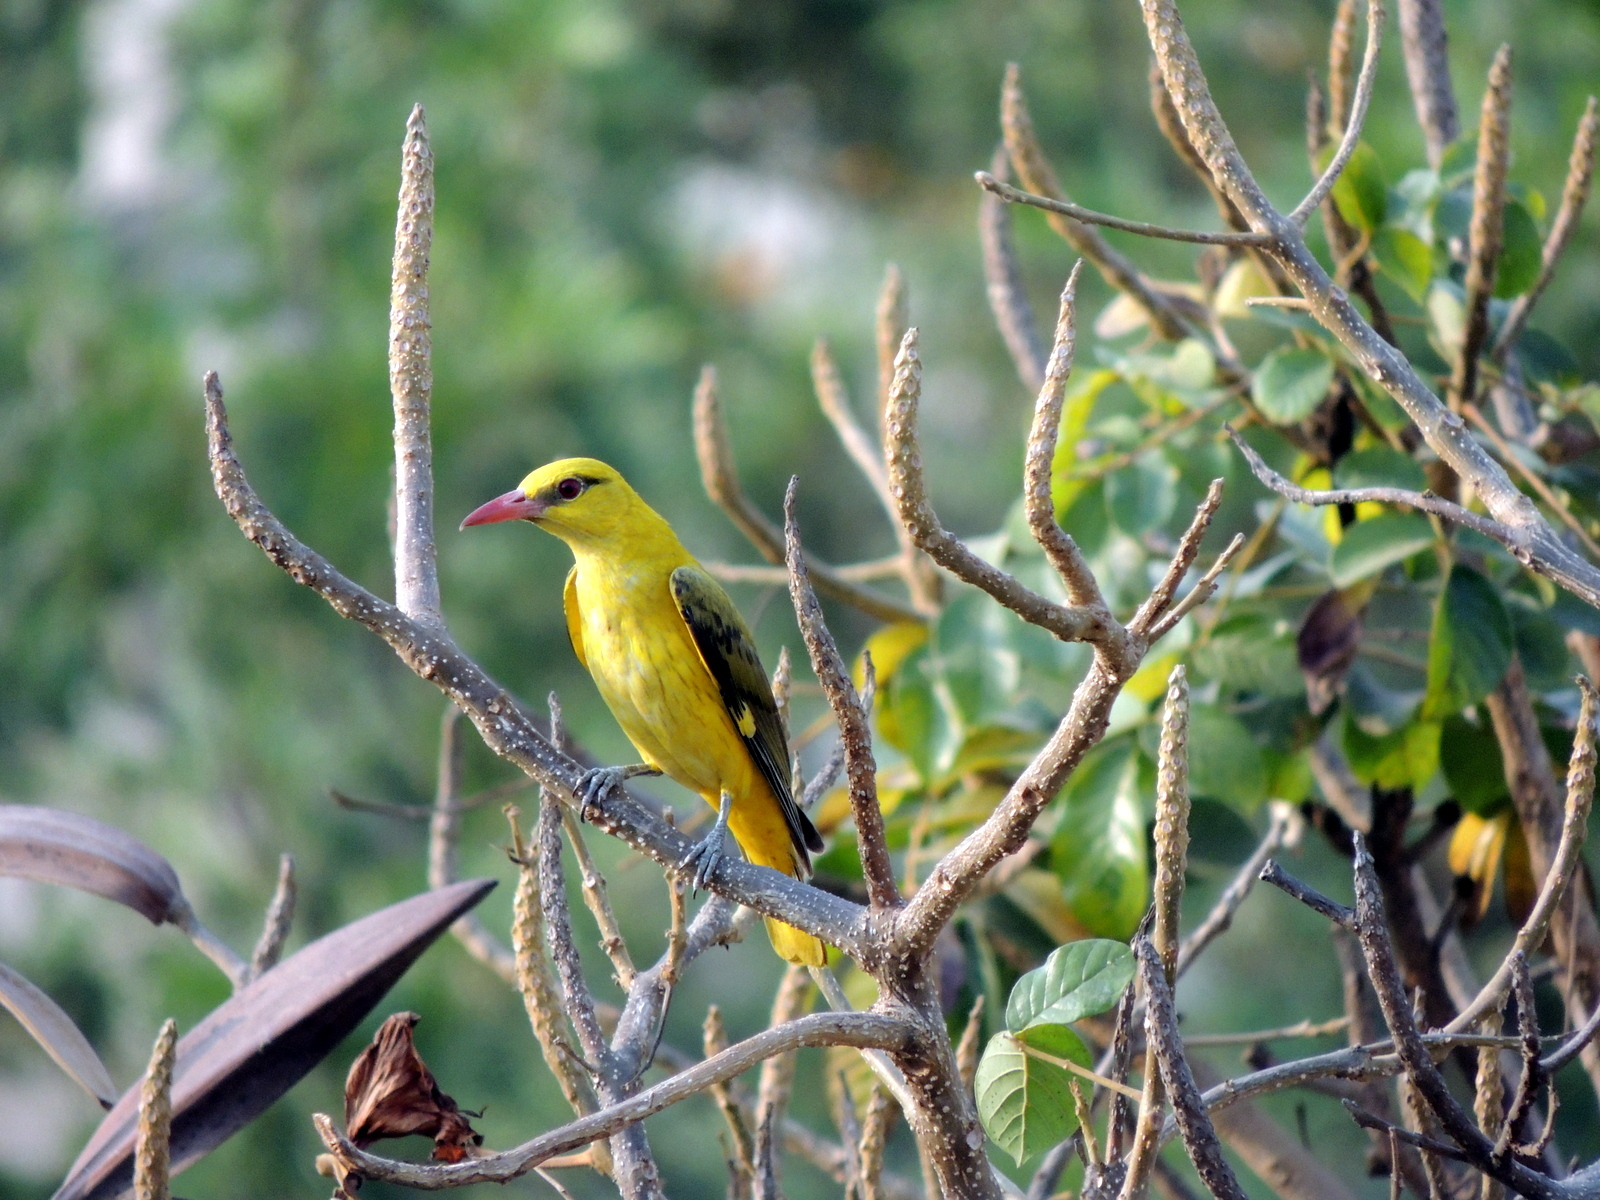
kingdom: Animalia
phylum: Chordata
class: Aves
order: Passeriformes
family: Oriolidae
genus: Oriolus
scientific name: Oriolus kundoo
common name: Indian golden oriole
